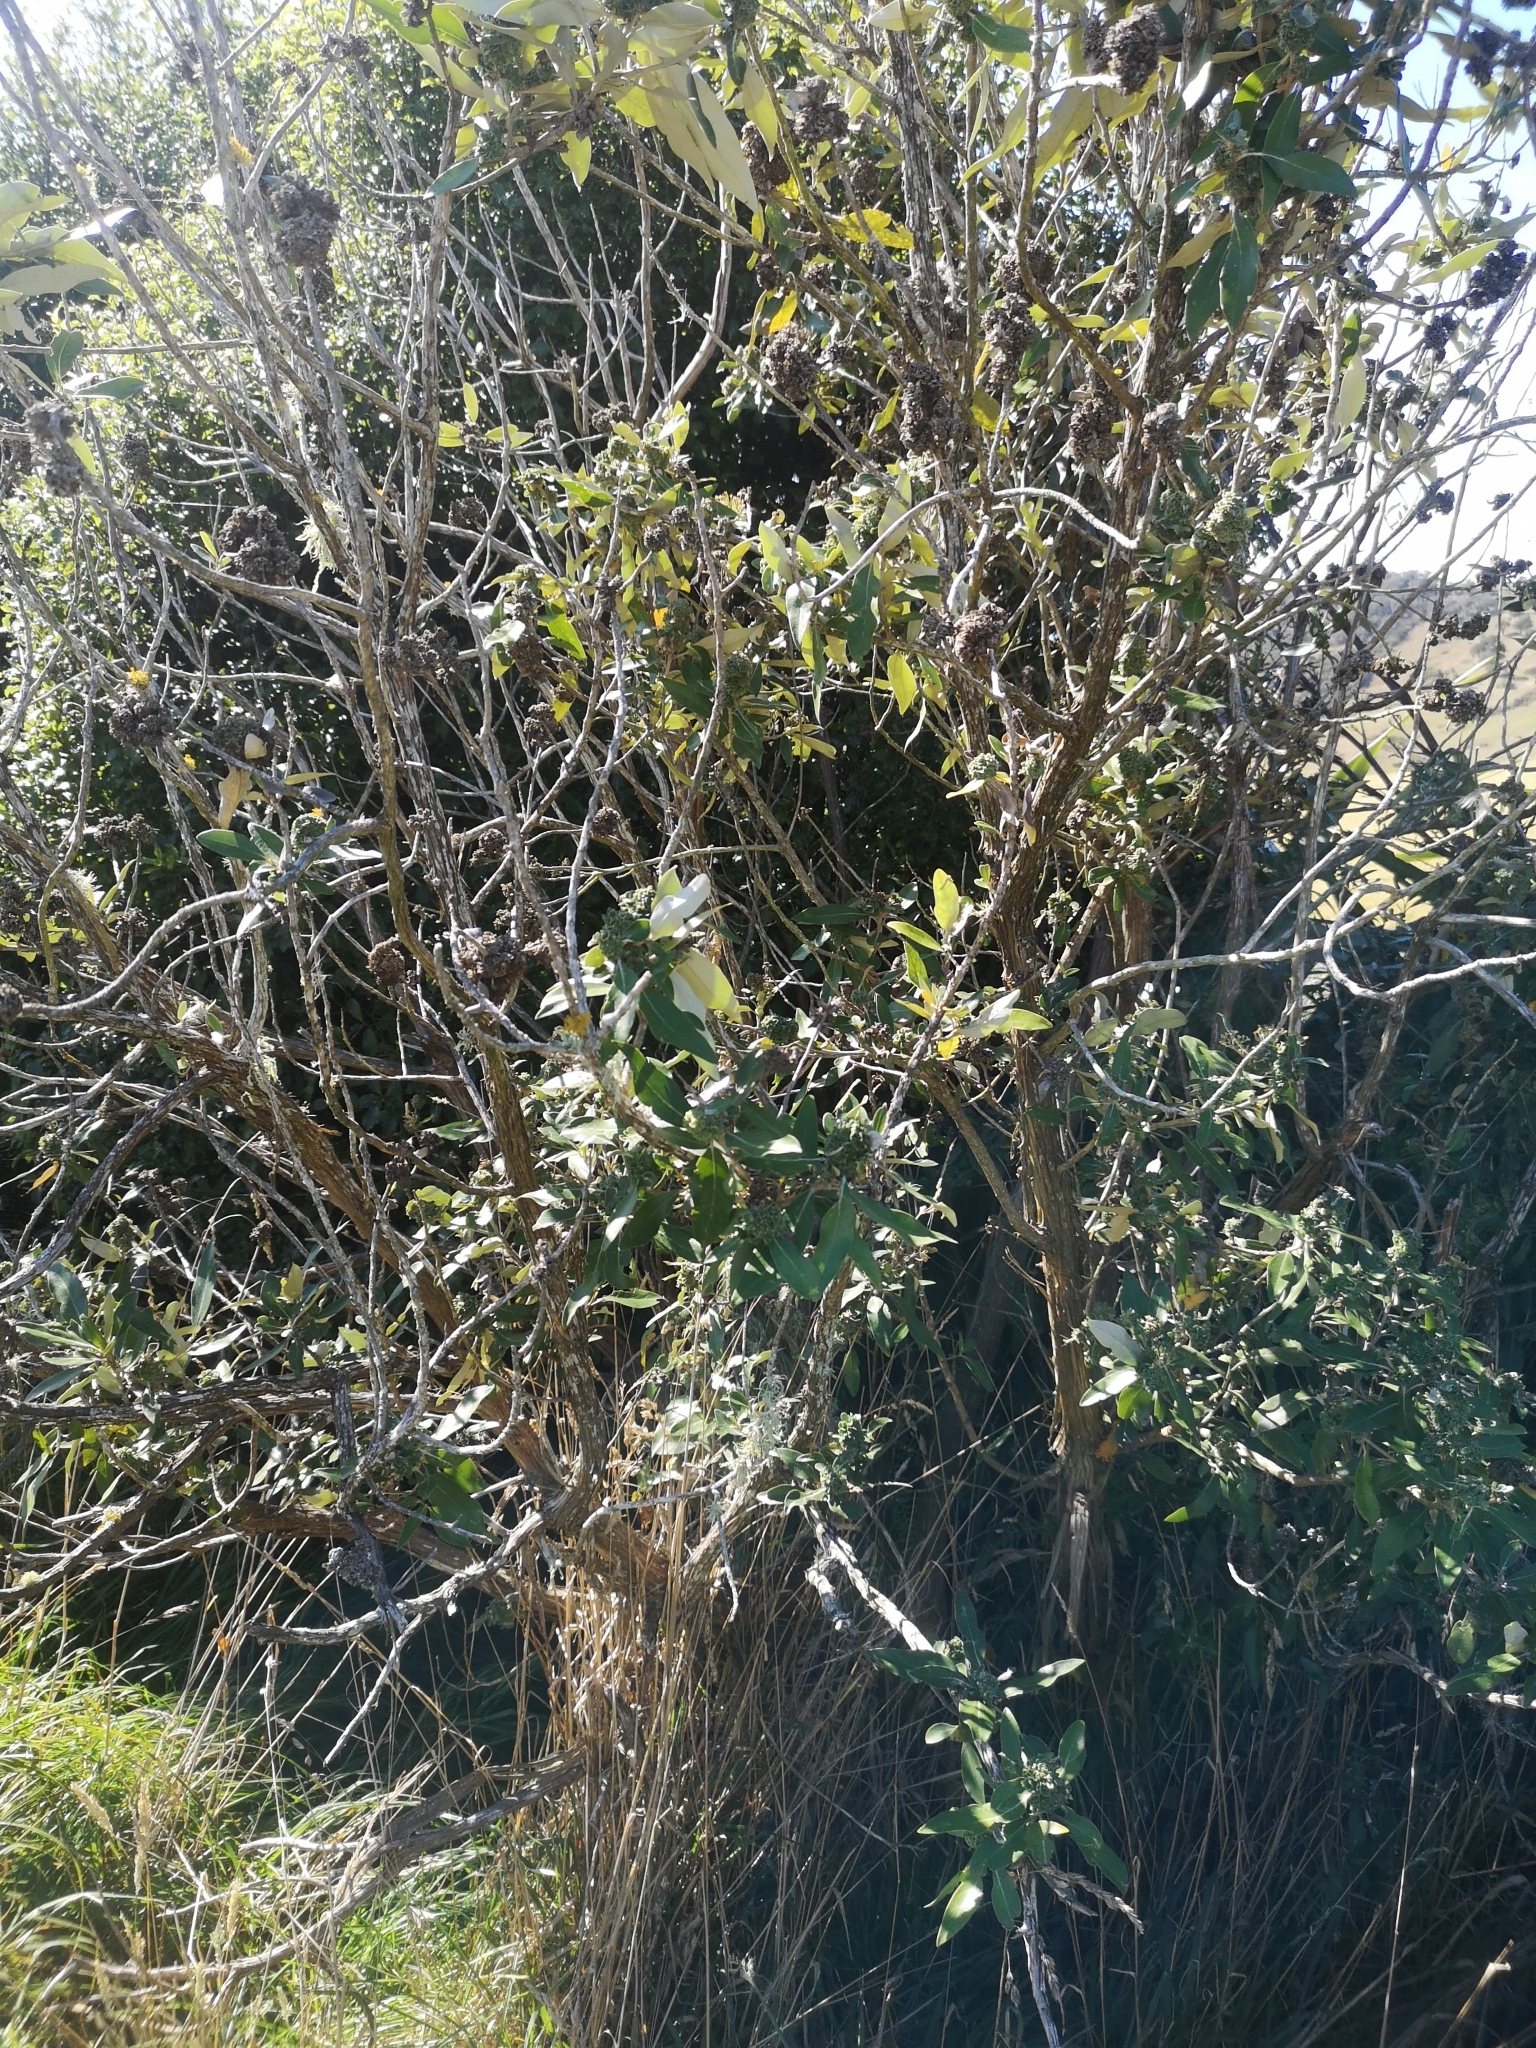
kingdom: Plantae
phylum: Tracheophyta
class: Magnoliopsida
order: Asterales
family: Asteraceae
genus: Olearia
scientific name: Olearia avicenniifolia
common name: Mangrove-leaf daisybush
